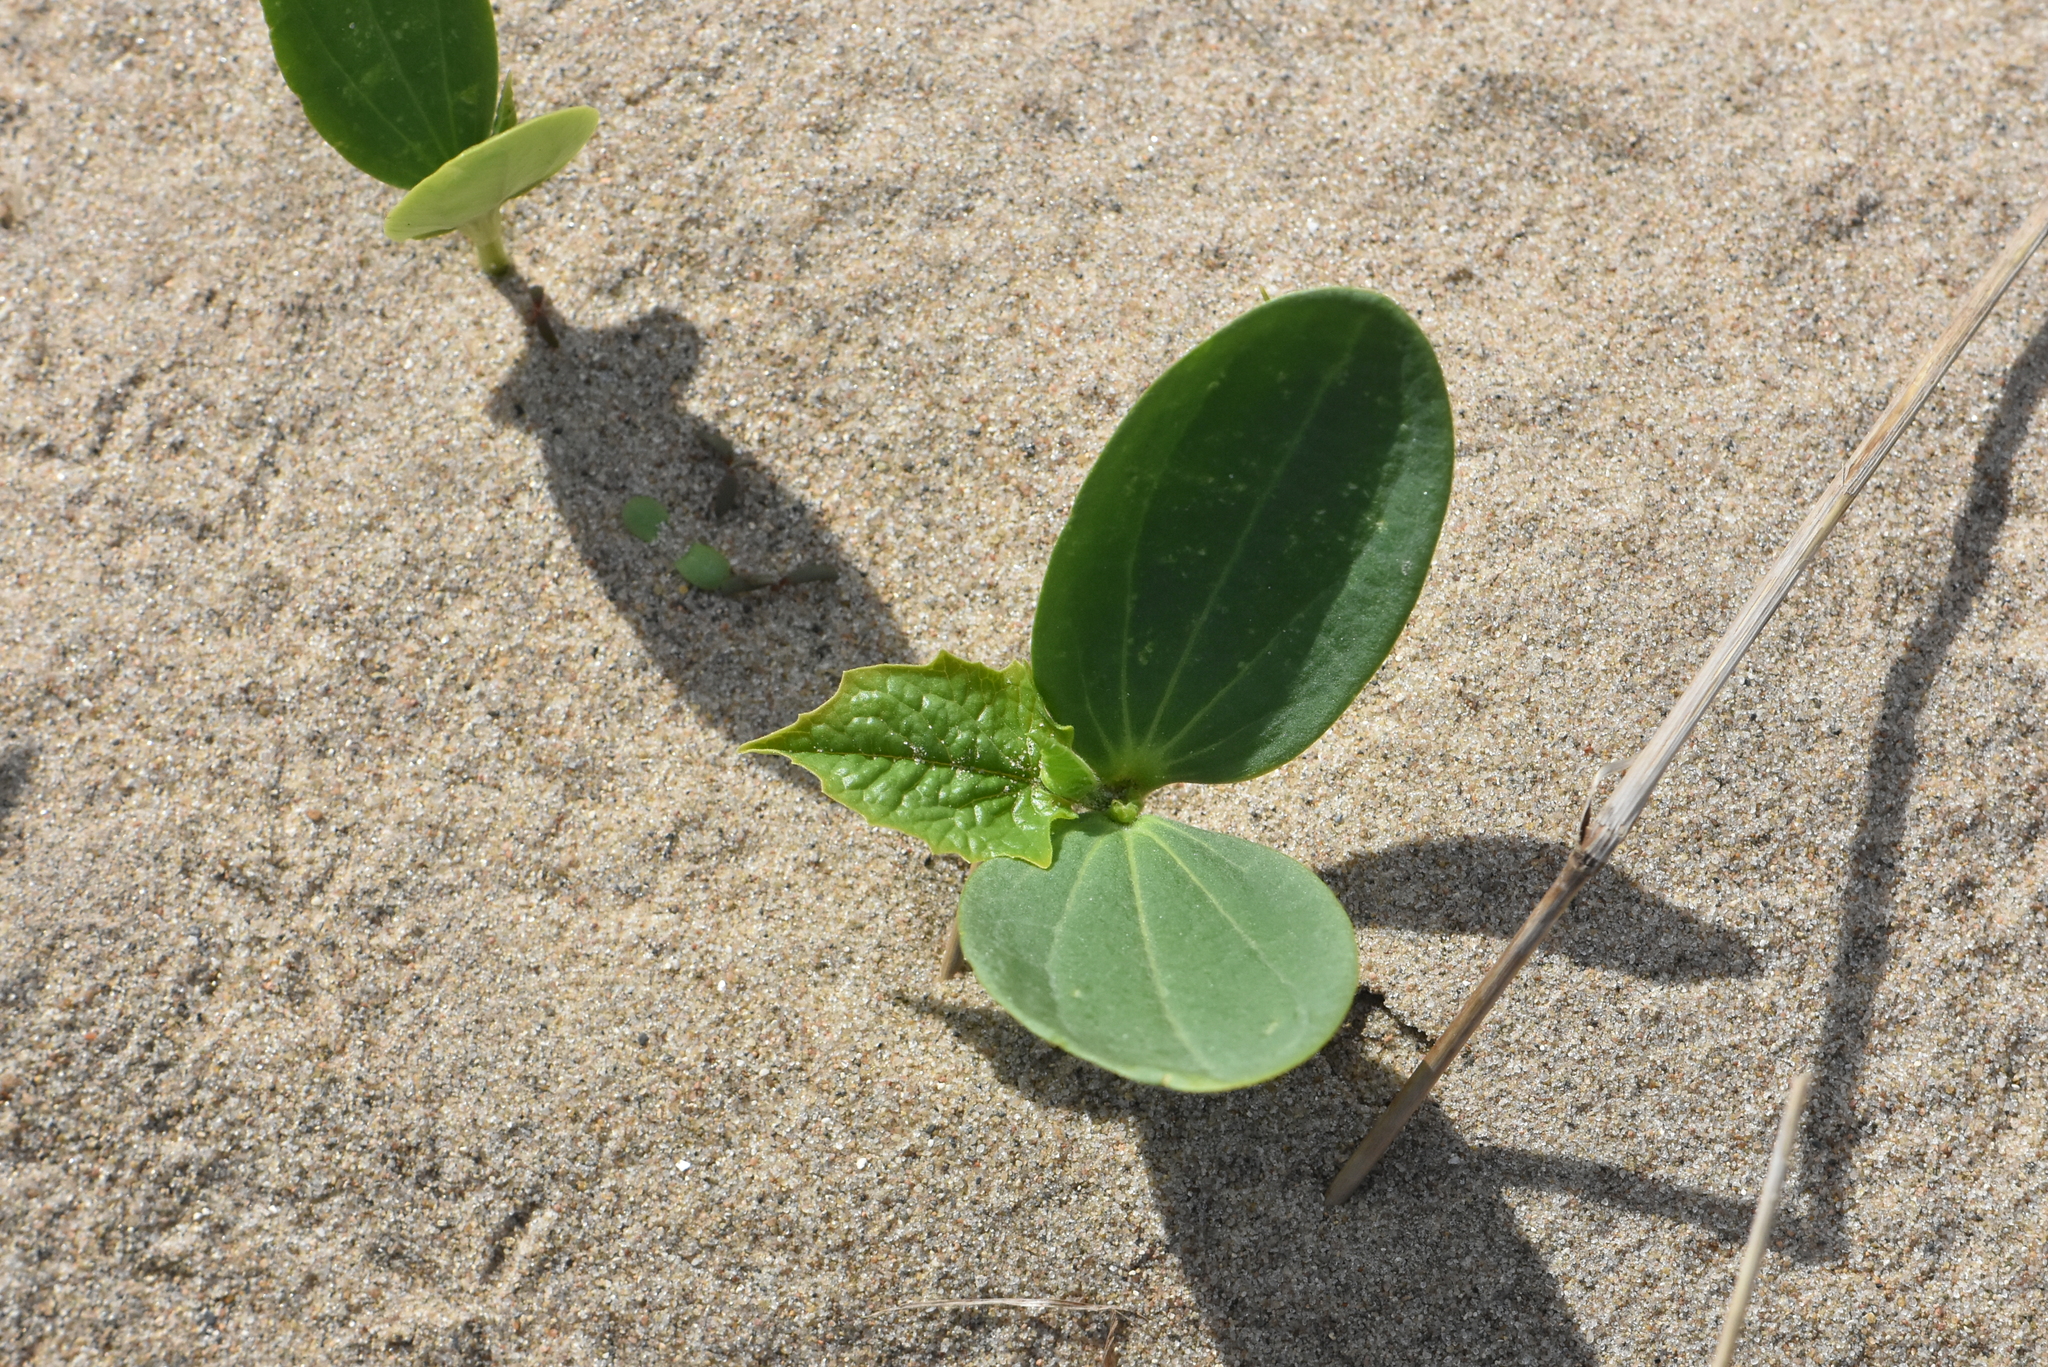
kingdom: Plantae
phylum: Tracheophyta
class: Magnoliopsida
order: Cucurbitales
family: Cucurbitaceae
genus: Echinocystis
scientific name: Echinocystis lobata
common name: Wild cucumber
